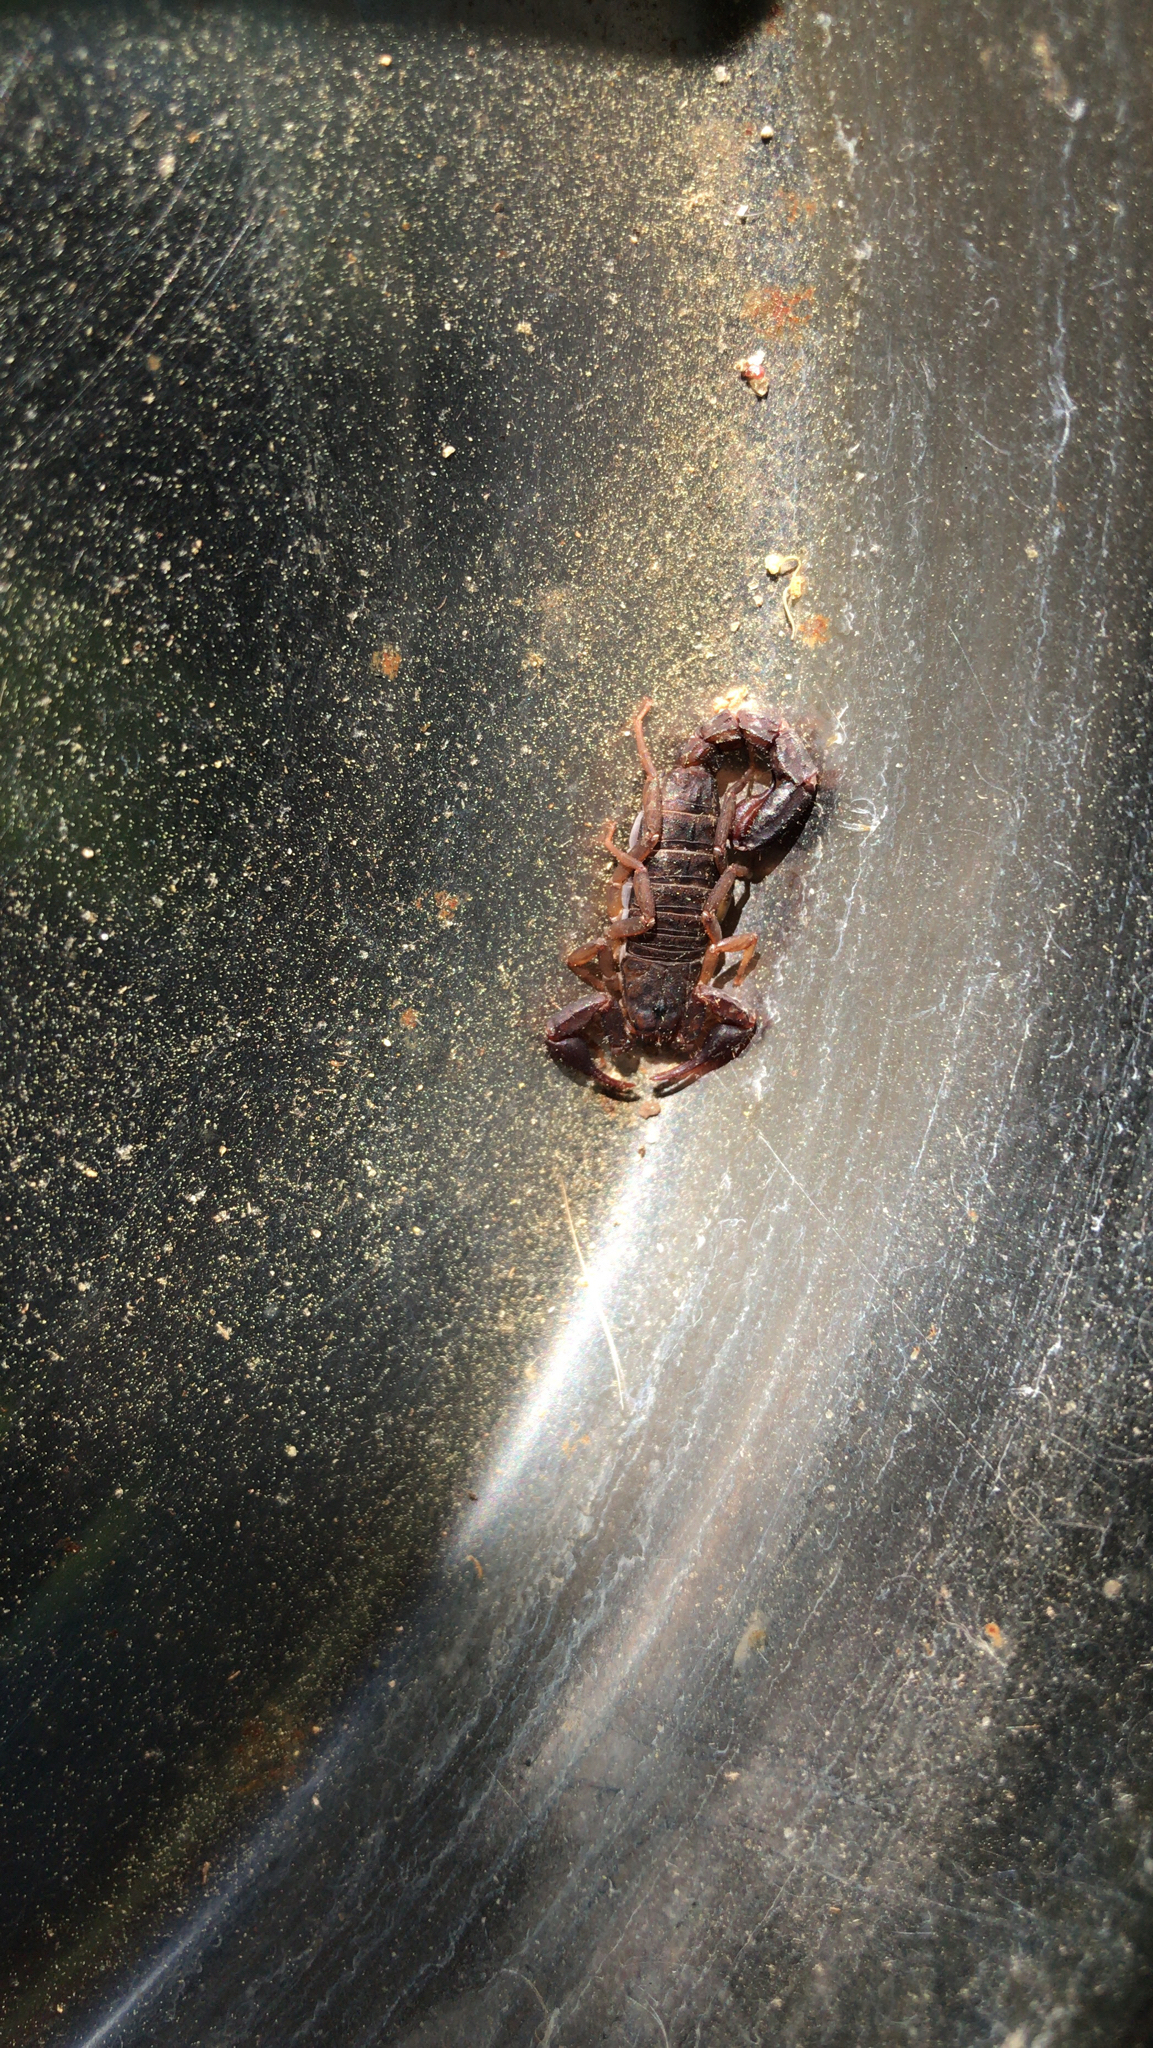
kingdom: Animalia
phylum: Arthropoda
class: Arachnida
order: Scorpiones
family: Vaejovidae
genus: Vaejovis
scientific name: Vaejovis carolinianus
